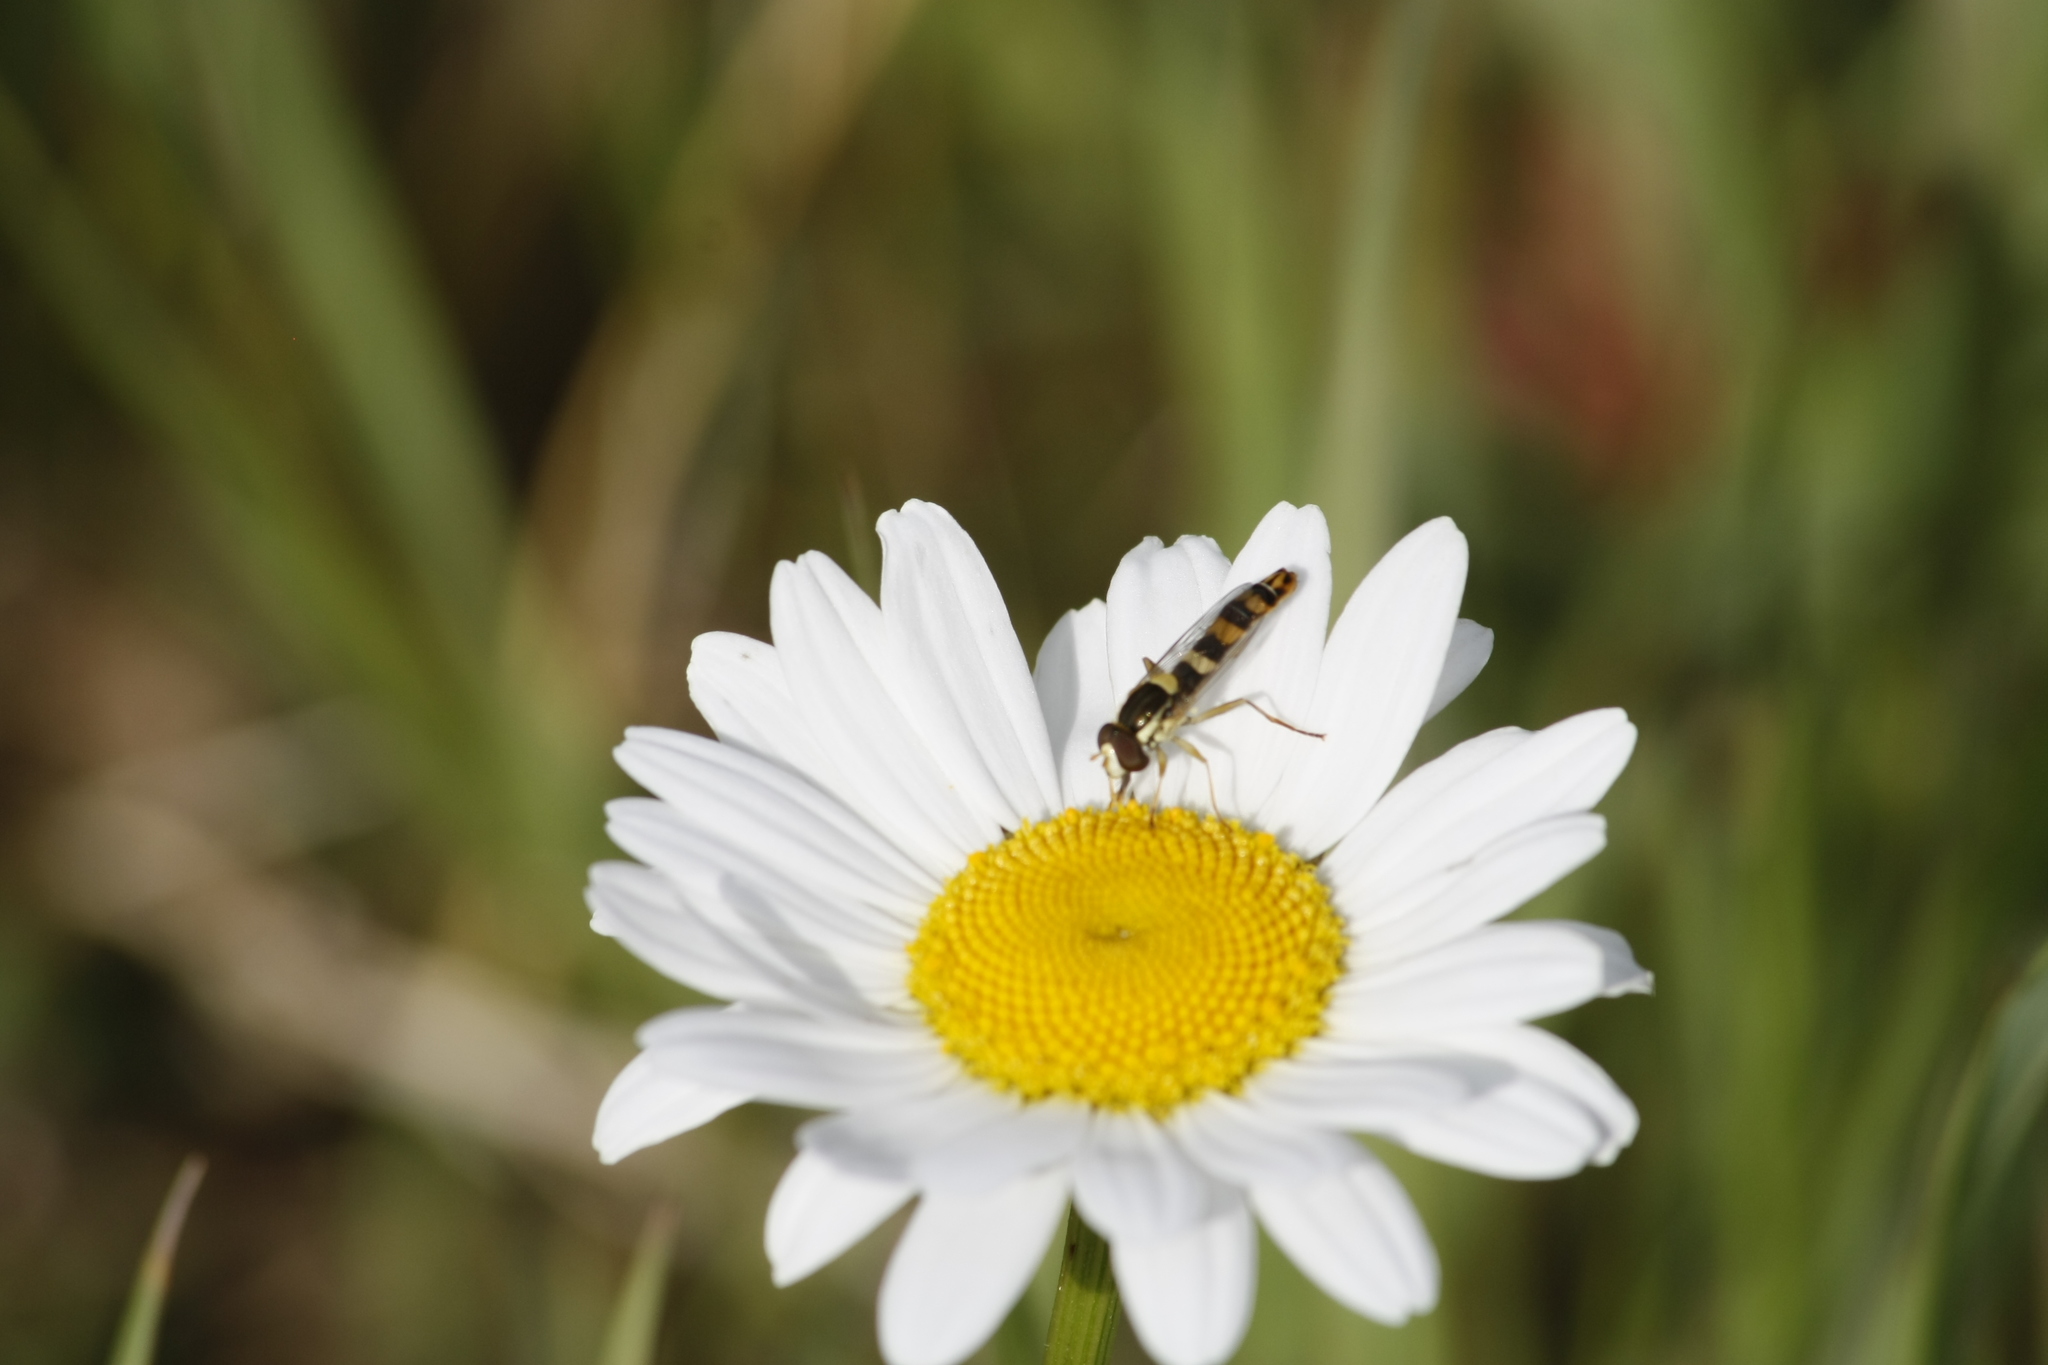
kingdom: Animalia
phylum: Arthropoda
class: Insecta
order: Diptera
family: Syrphidae
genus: Sphaerophoria
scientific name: Sphaerophoria scripta
